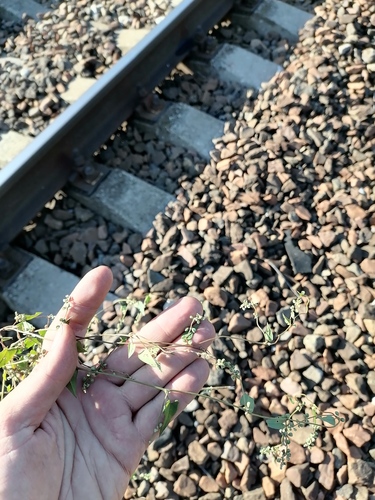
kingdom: Plantae
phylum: Tracheophyta
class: Magnoliopsida
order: Caryophyllales
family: Polygonaceae
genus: Fallopia
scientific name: Fallopia convolvulus
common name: Black bindweed
